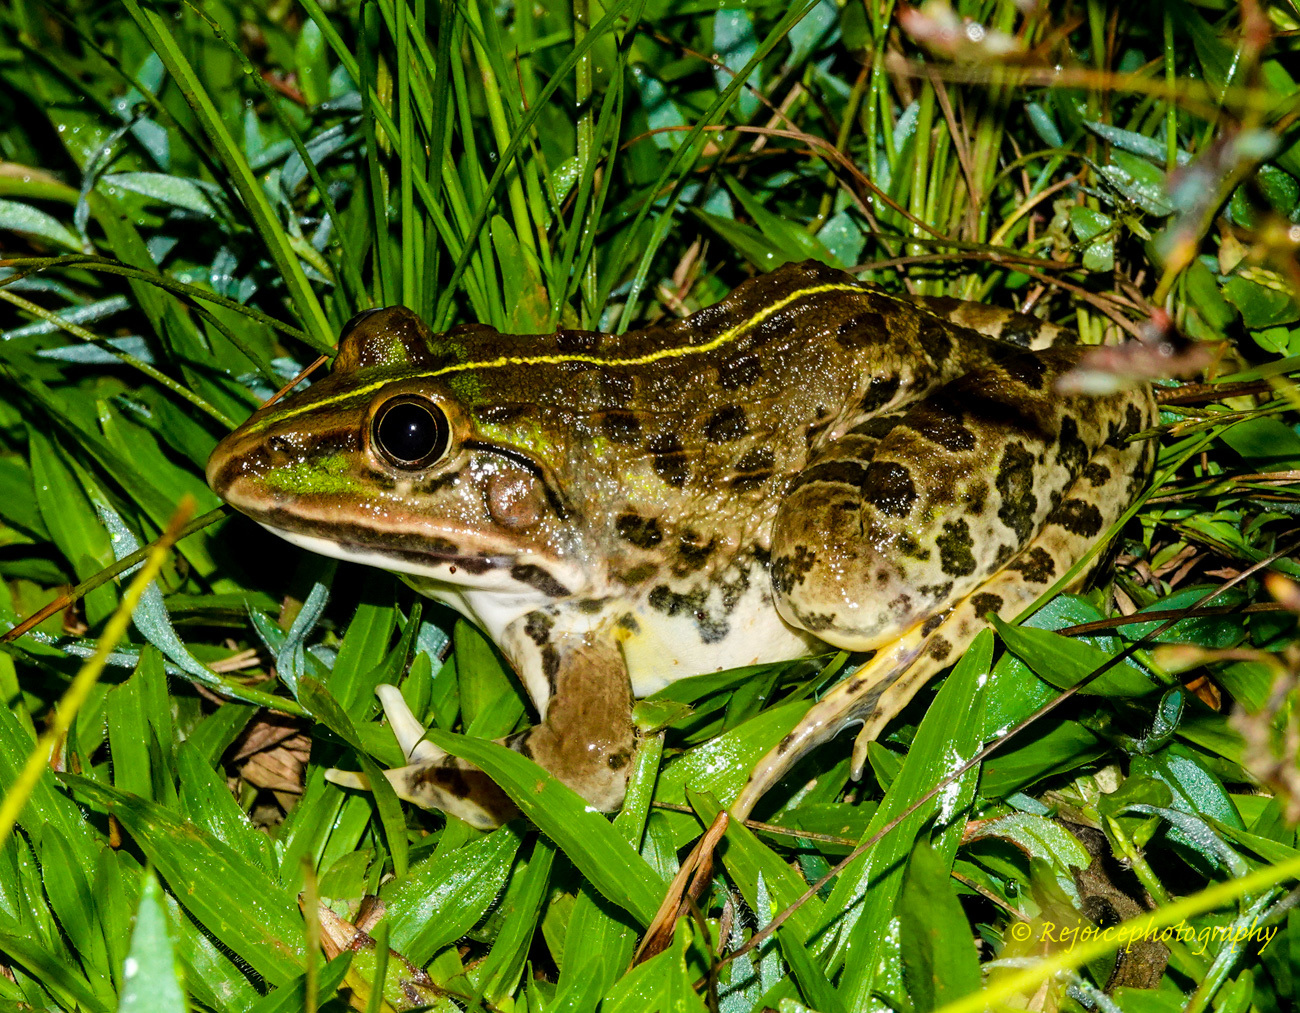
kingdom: Animalia
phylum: Chordata
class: Amphibia
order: Anura
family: Dicroglossidae
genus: Hoplobatrachus
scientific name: Hoplobatrachus tigerinus
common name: Indian bullfrog
